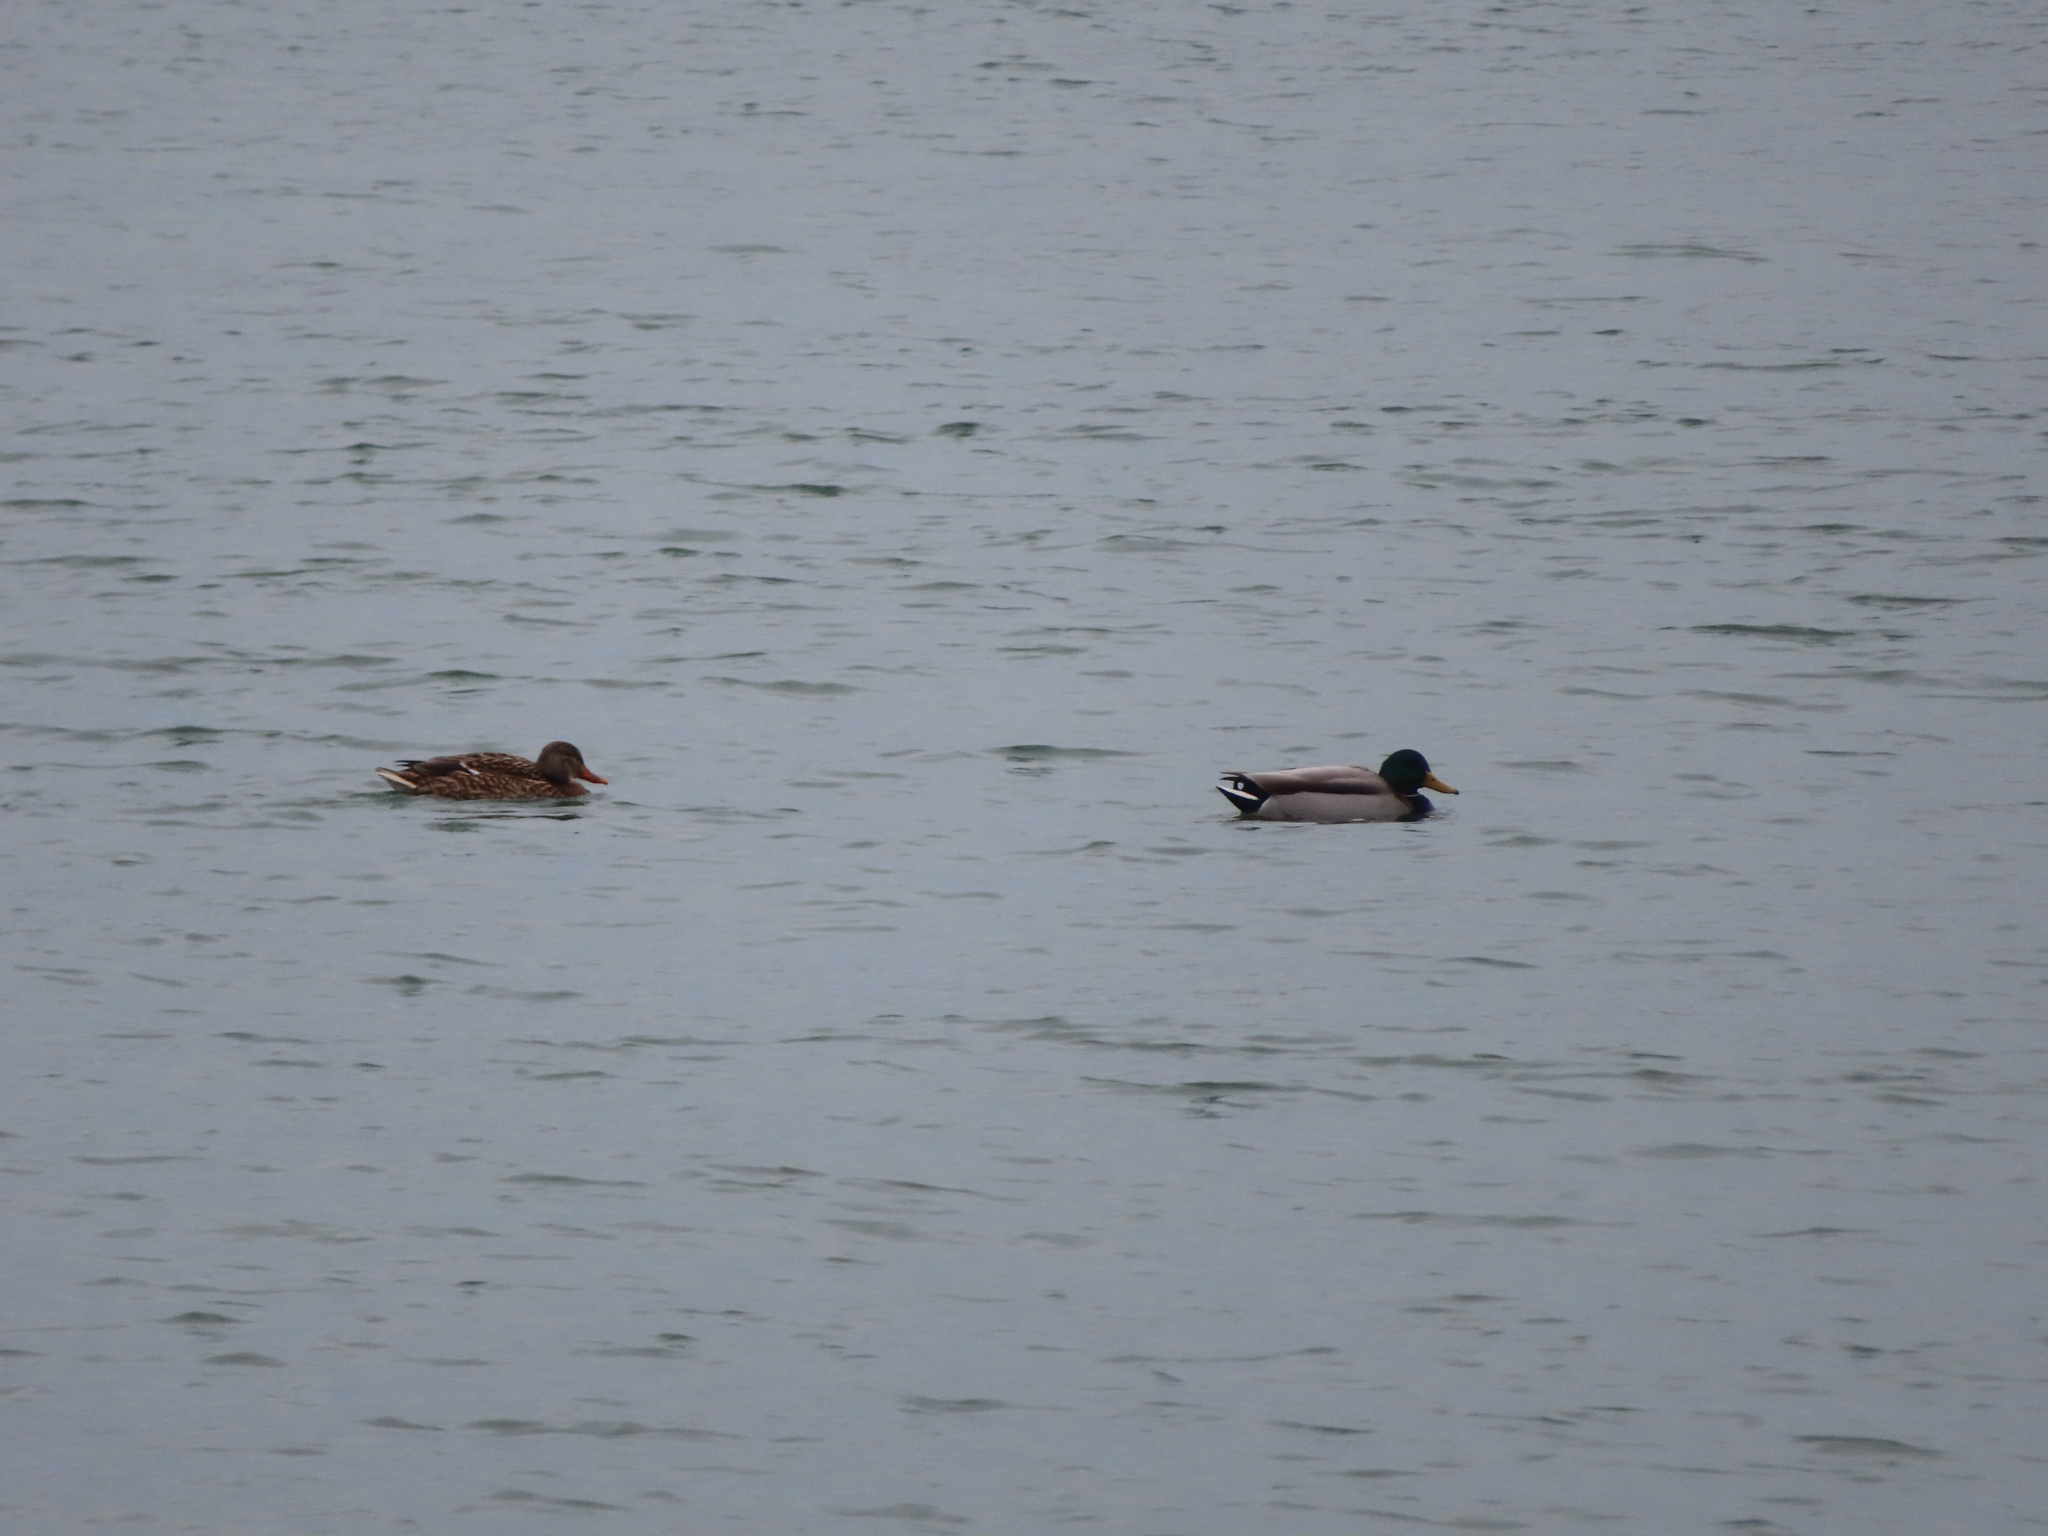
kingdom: Animalia
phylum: Chordata
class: Aves
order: Anseriformes
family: Anatidae
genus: Anas
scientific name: Anas platyrhynchos
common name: Mallard
